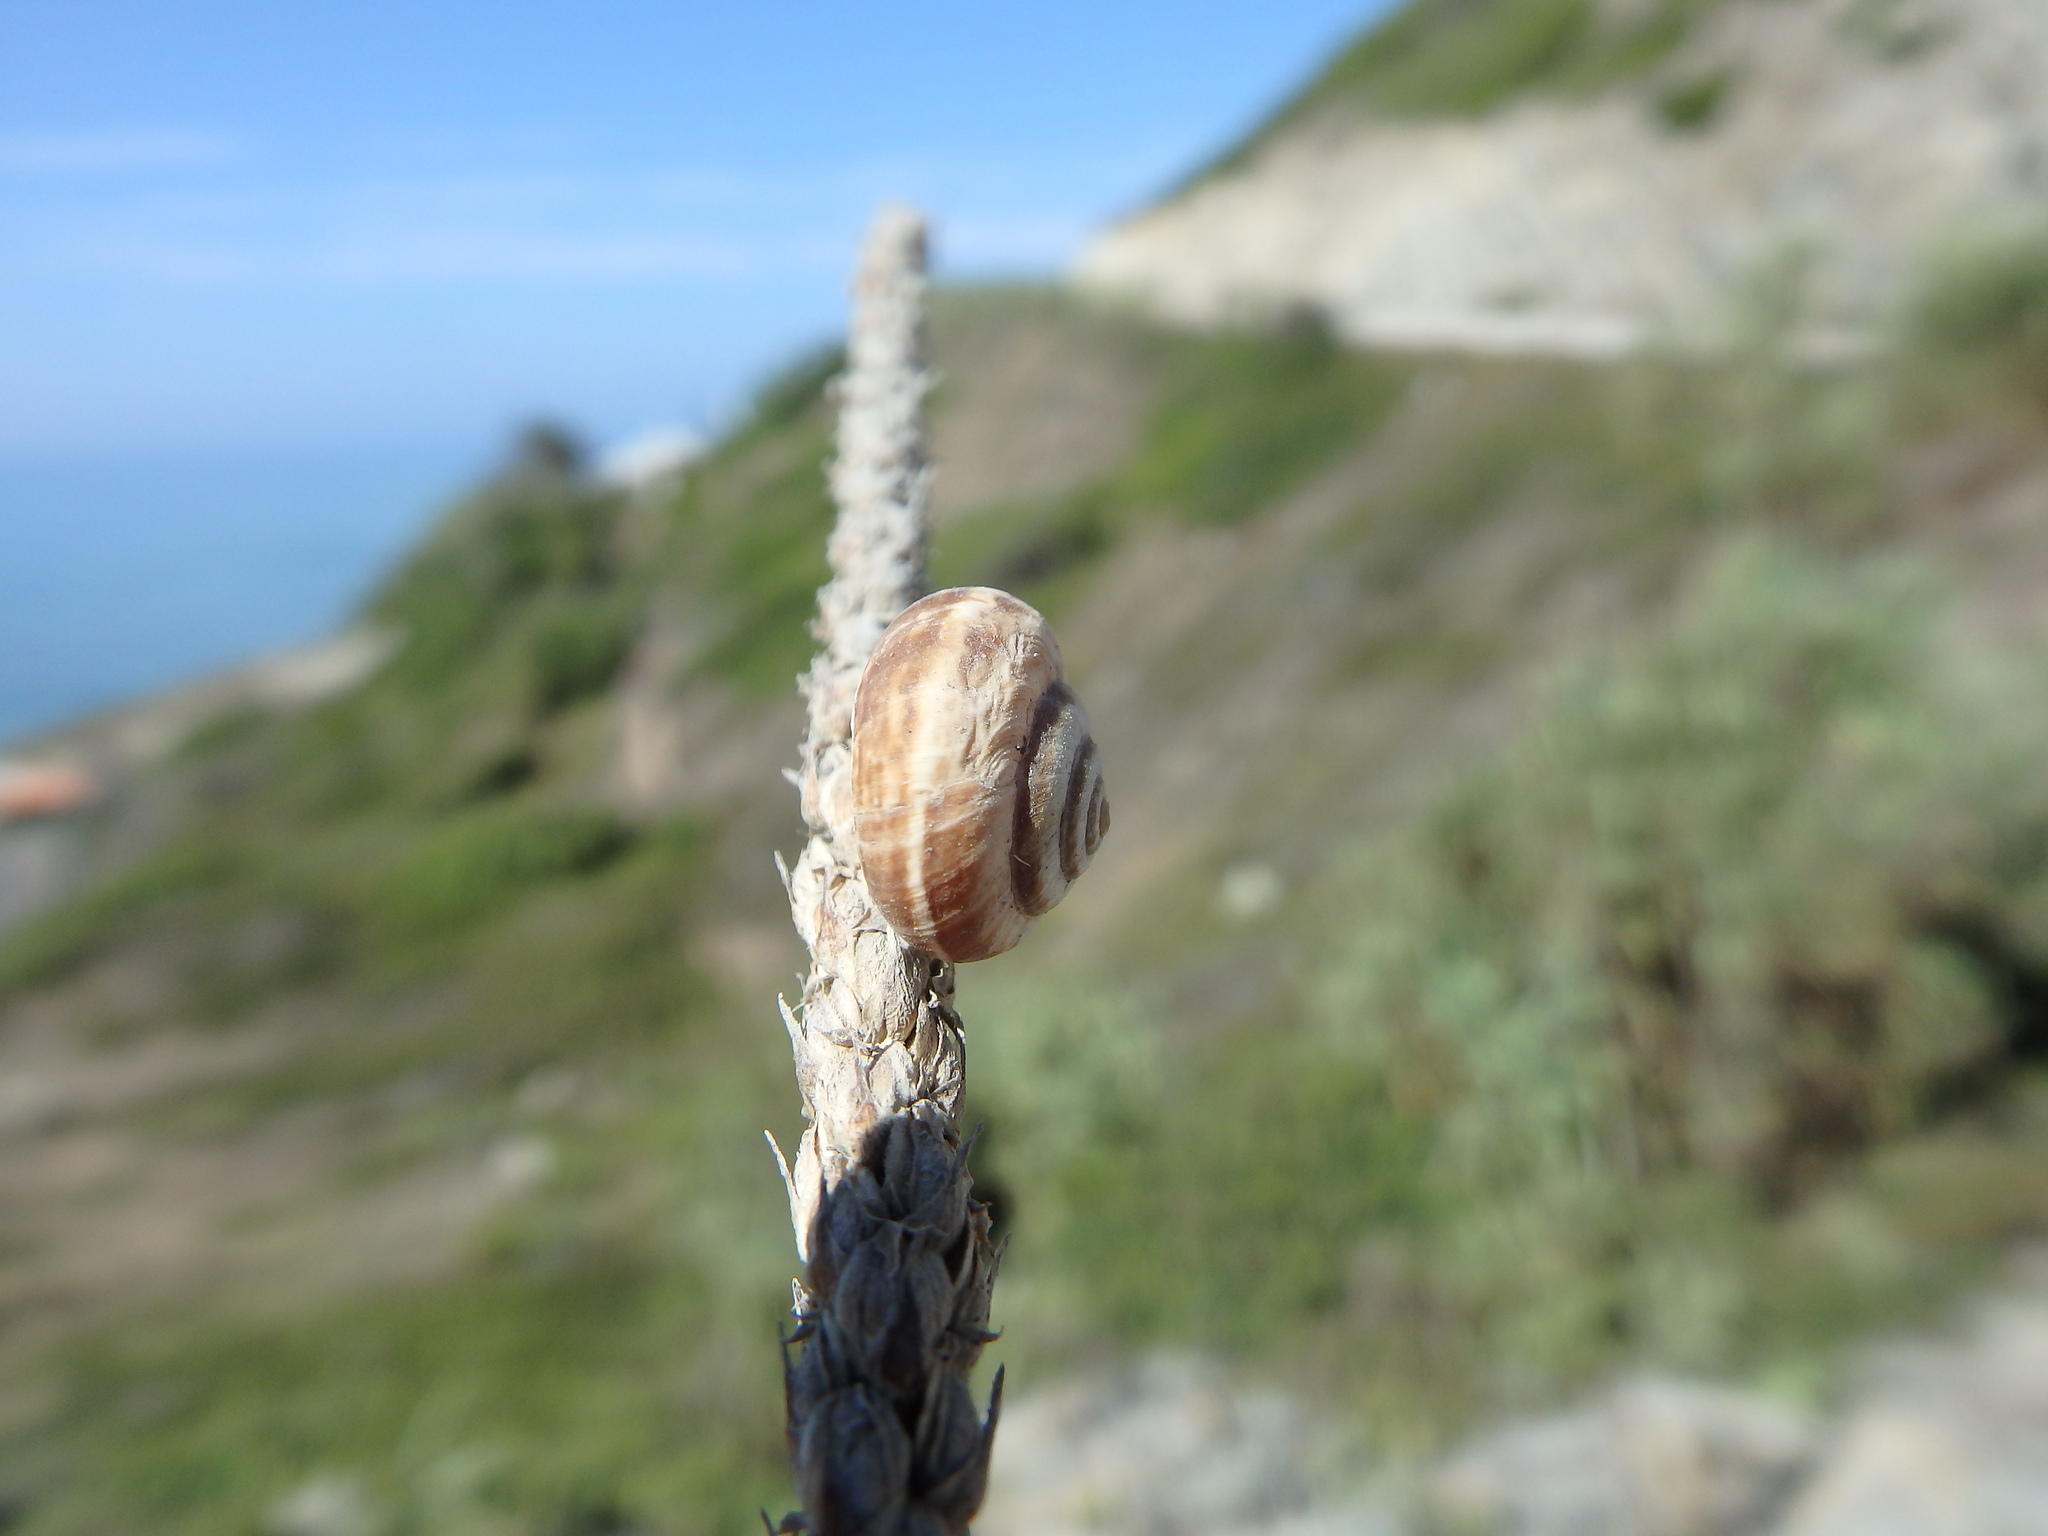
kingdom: Animalia
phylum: Mollusca
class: Gastropoda
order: Stylommatophora
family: Geomitridae
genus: Cernuella
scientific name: Cernuella virgata
